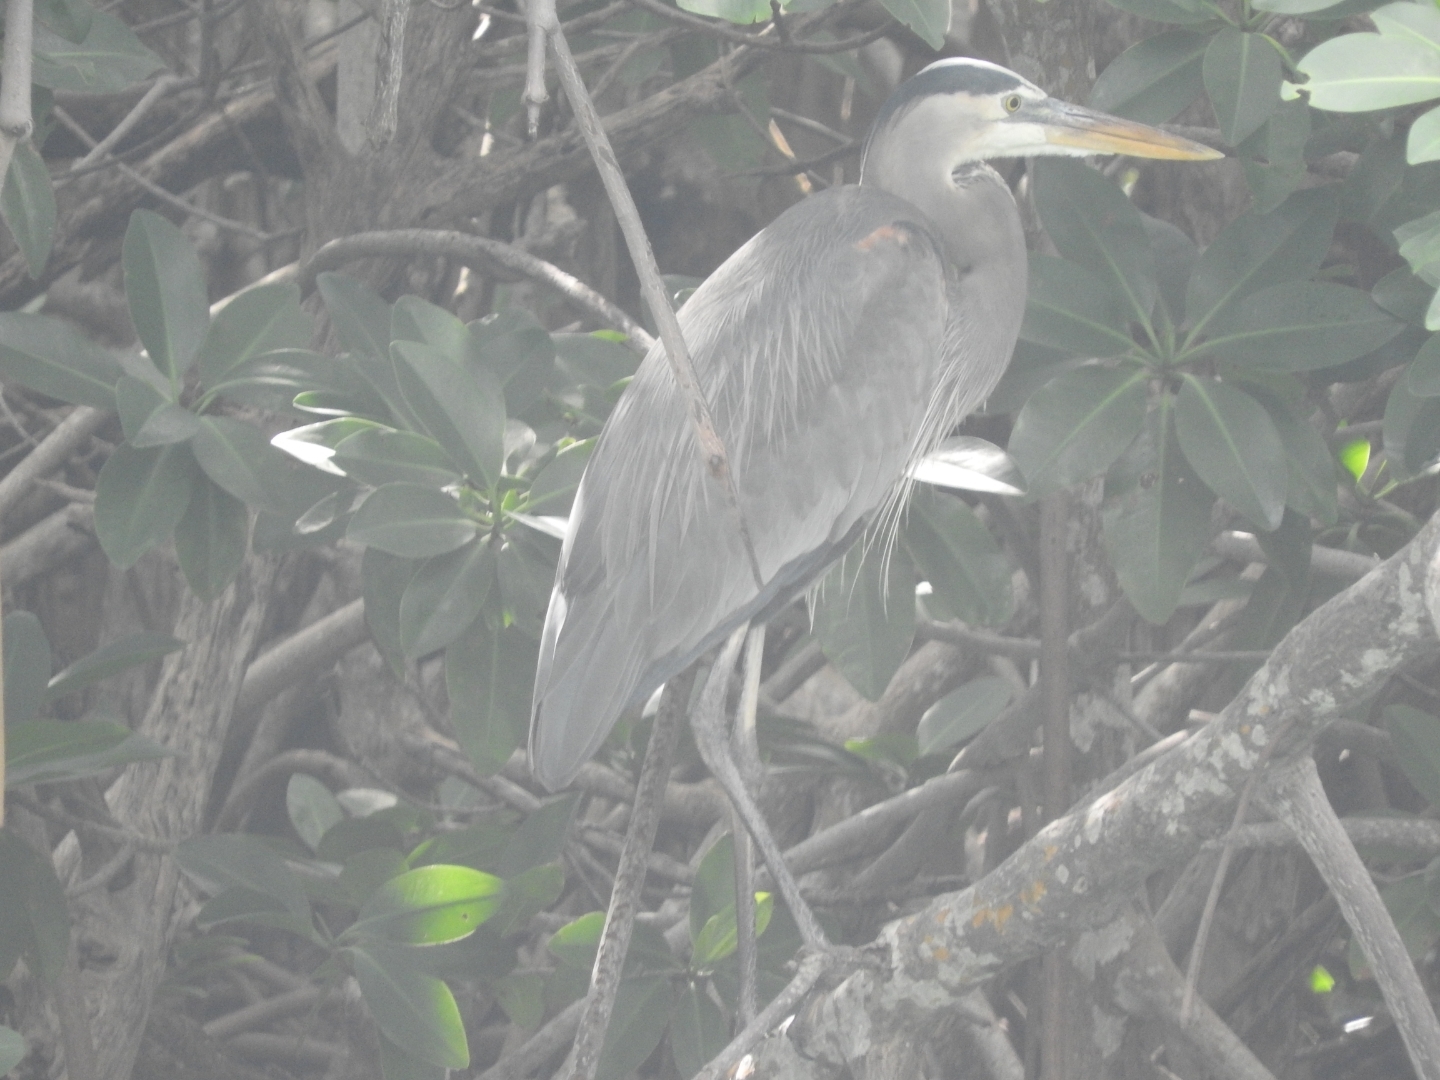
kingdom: Animalia
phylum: Chordata
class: Aves
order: Pelecaniformes
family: Ardeidae
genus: Ardea
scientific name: Ardea herodias
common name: Great blue heron
